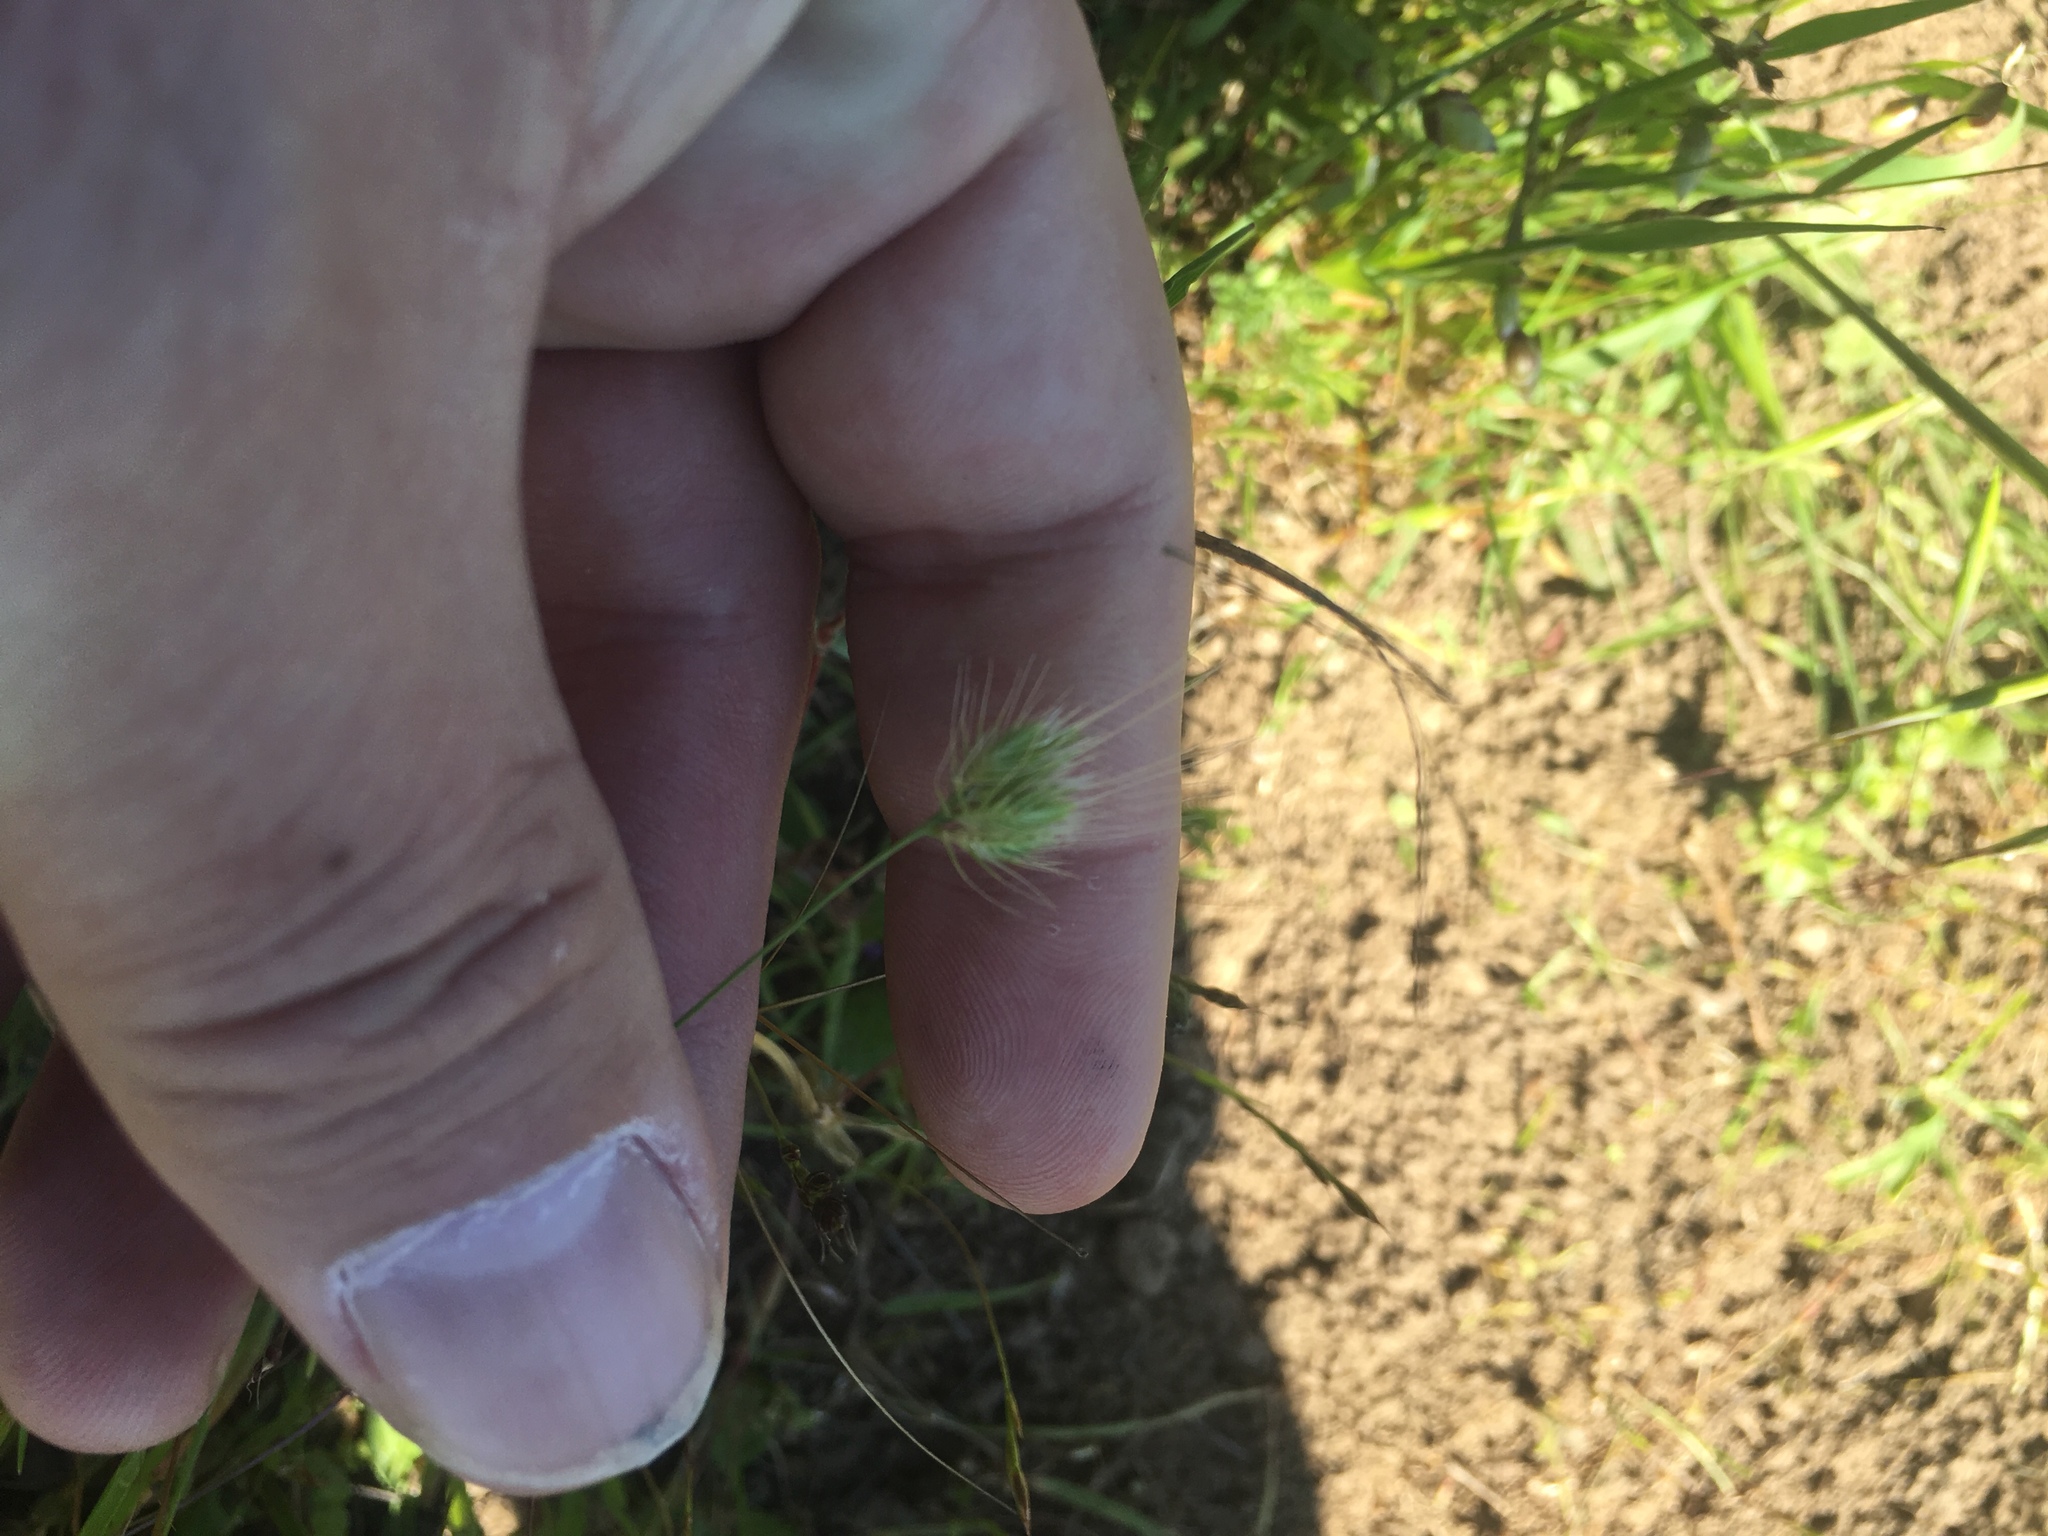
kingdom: Plantae
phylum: Tracheophyta
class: Liliopsida
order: Poales
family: Poaceae
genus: Cynosurus
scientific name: Cynosurus echinatus
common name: Rough dog's-tail
